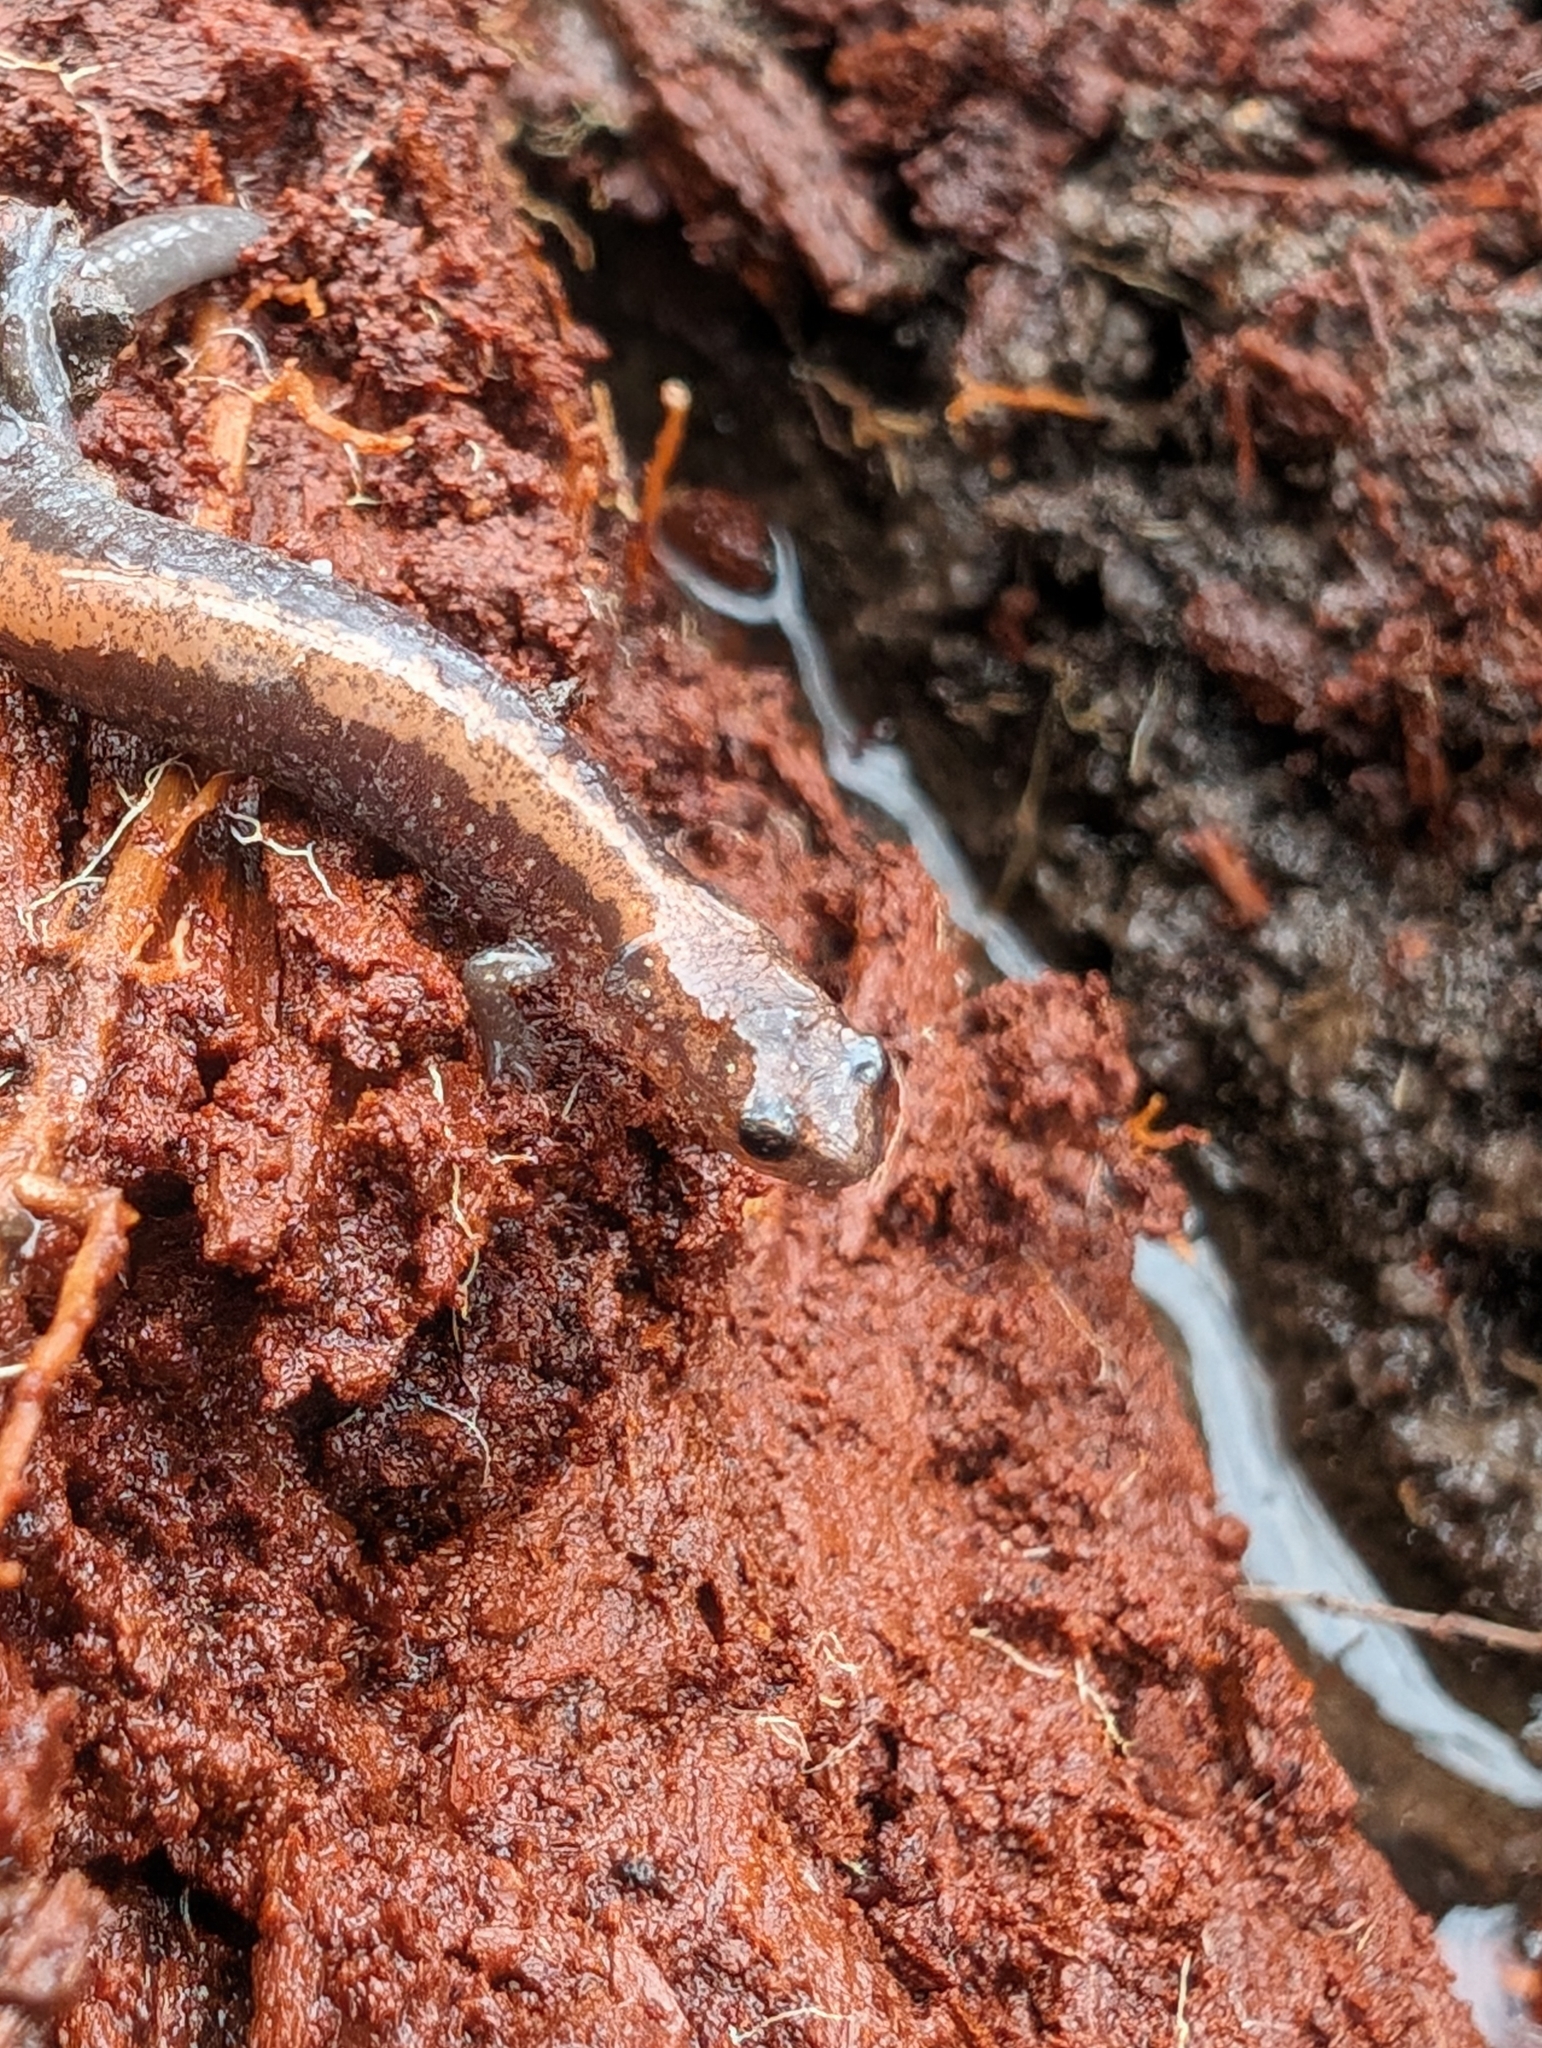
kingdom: Animalia
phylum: Chordata
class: Amphibia
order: Caudata
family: Plethodontidae
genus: Plethodon
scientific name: Plethodon cinereus
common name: Redback salamander
